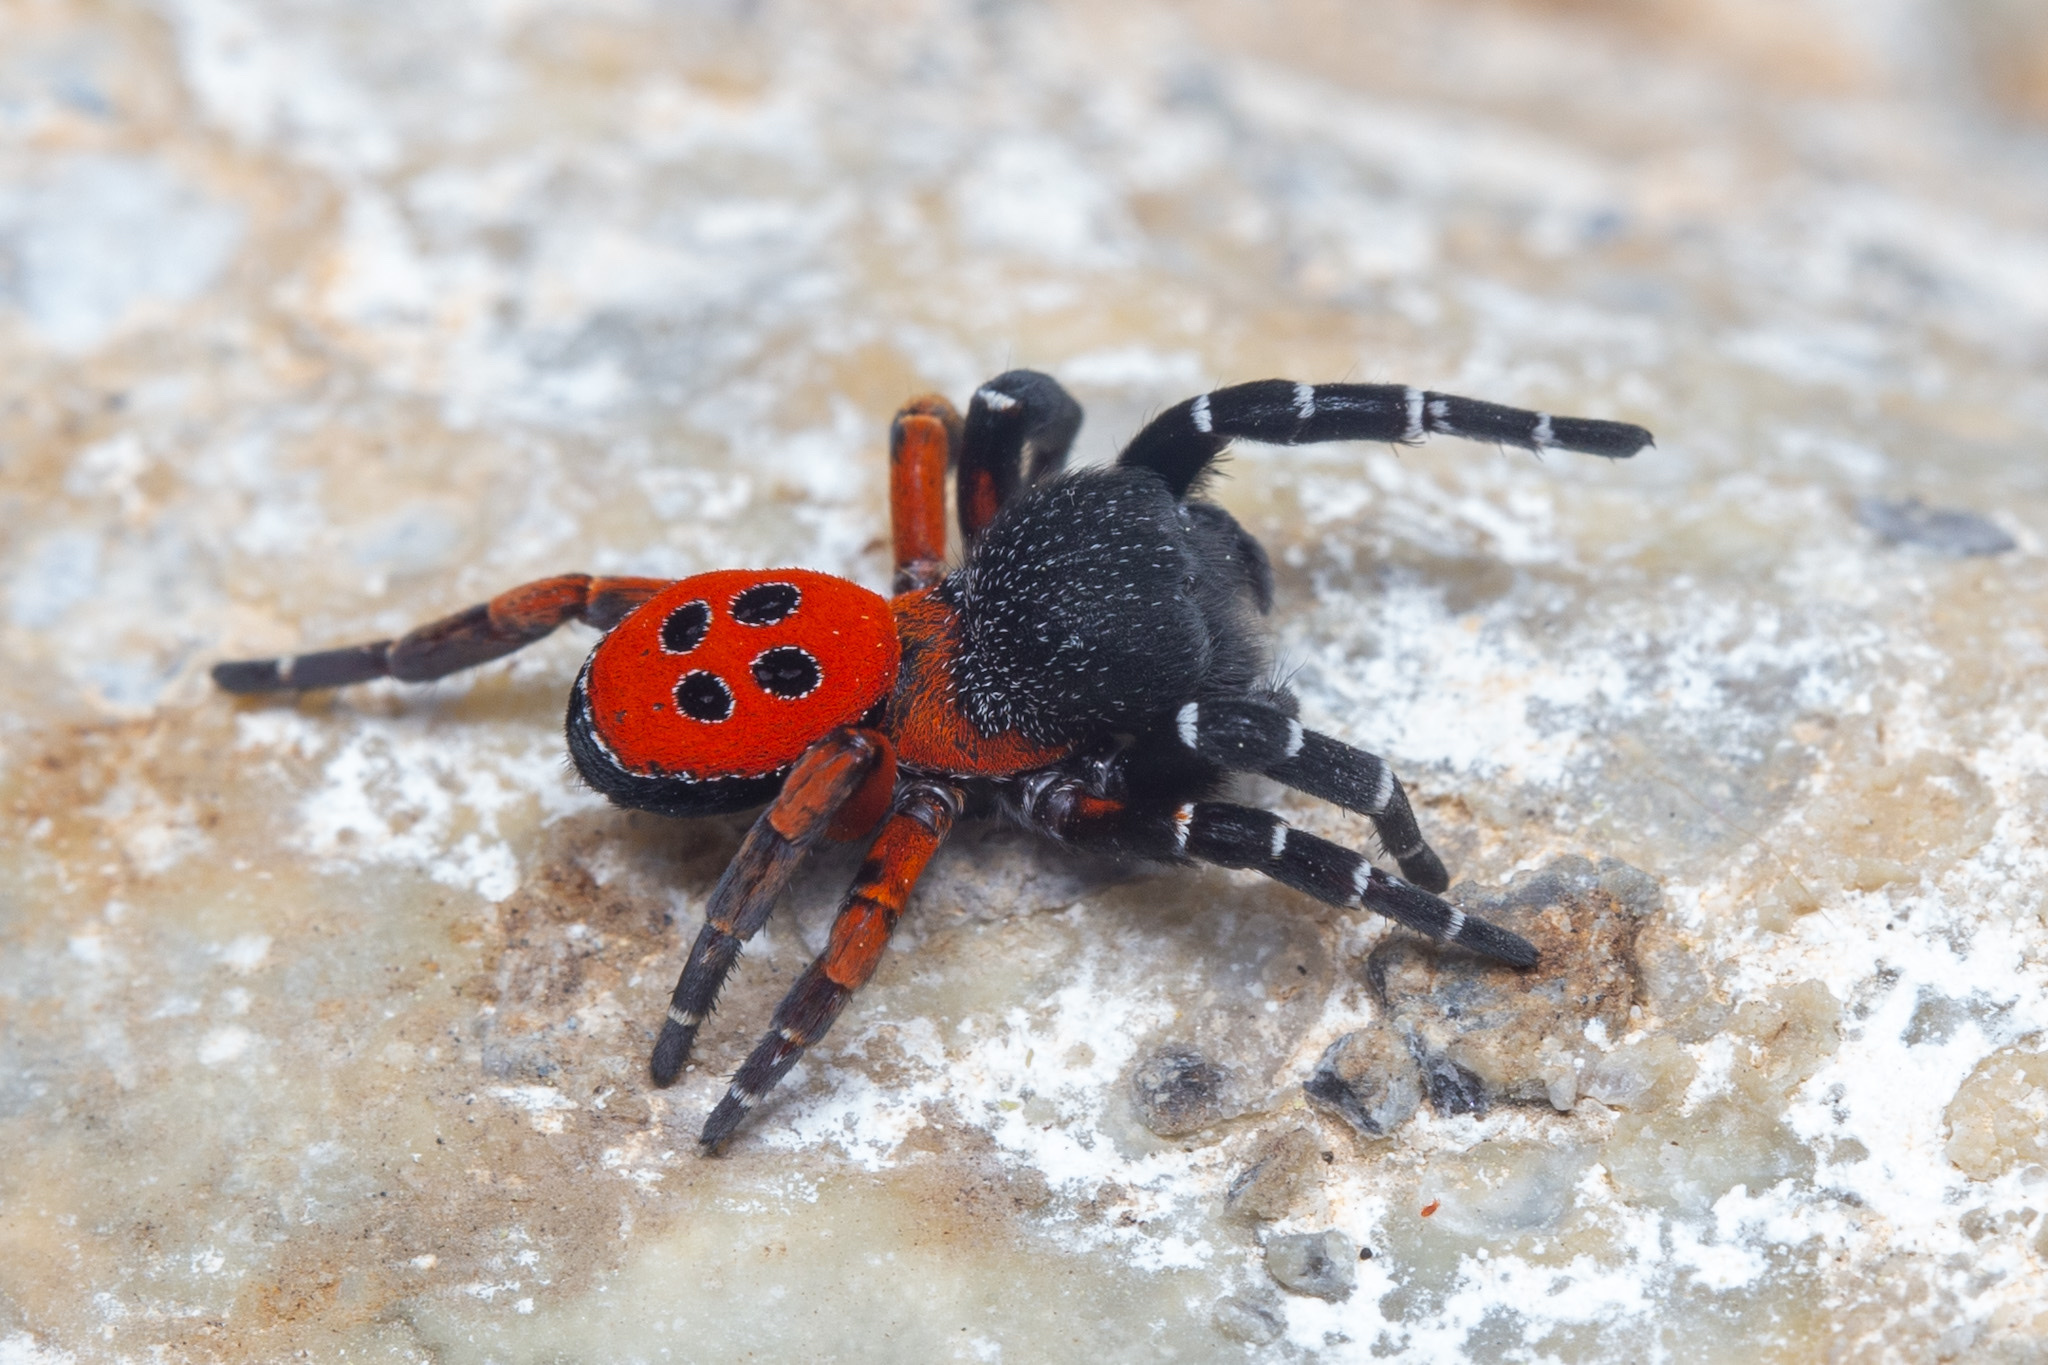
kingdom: Animalia
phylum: Arthropoda
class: Arachnida
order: Araneae
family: Eresidae
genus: Eresus
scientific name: Eresus
